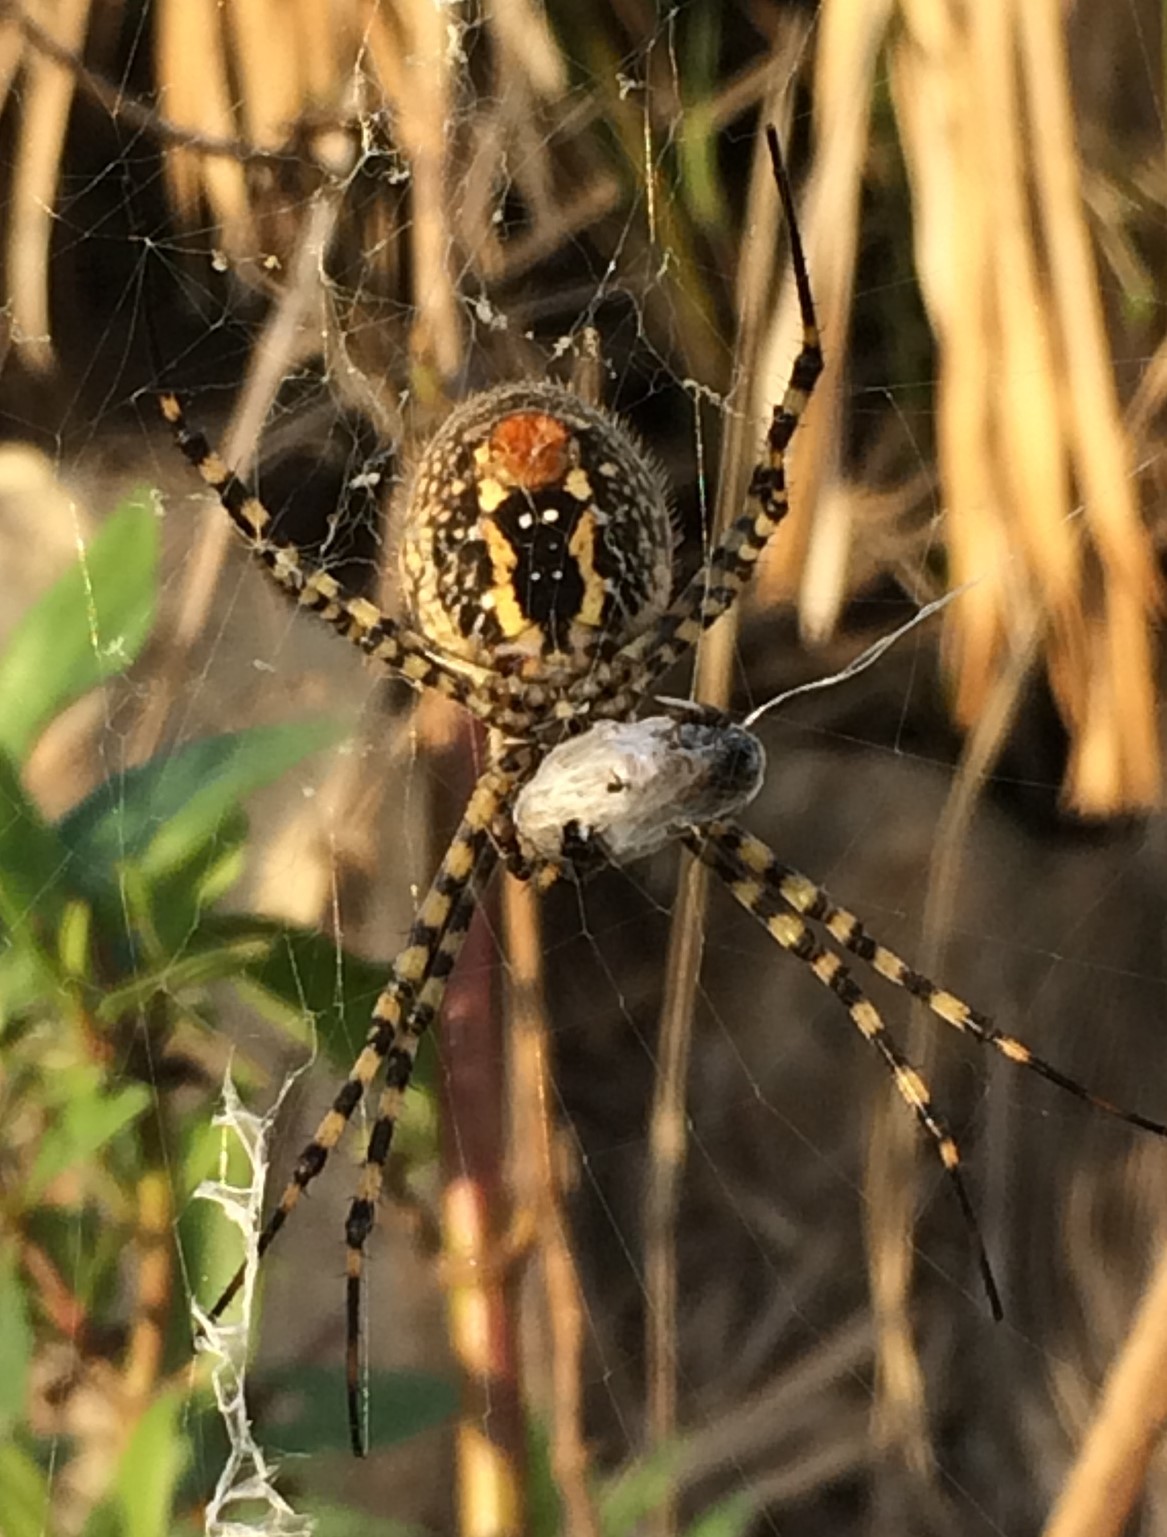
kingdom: Animalia
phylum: Arthropoda
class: Arachnida
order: Araneae
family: Araneidae
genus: Argiope
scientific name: Argiope trifasciata
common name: Banded garden spider
